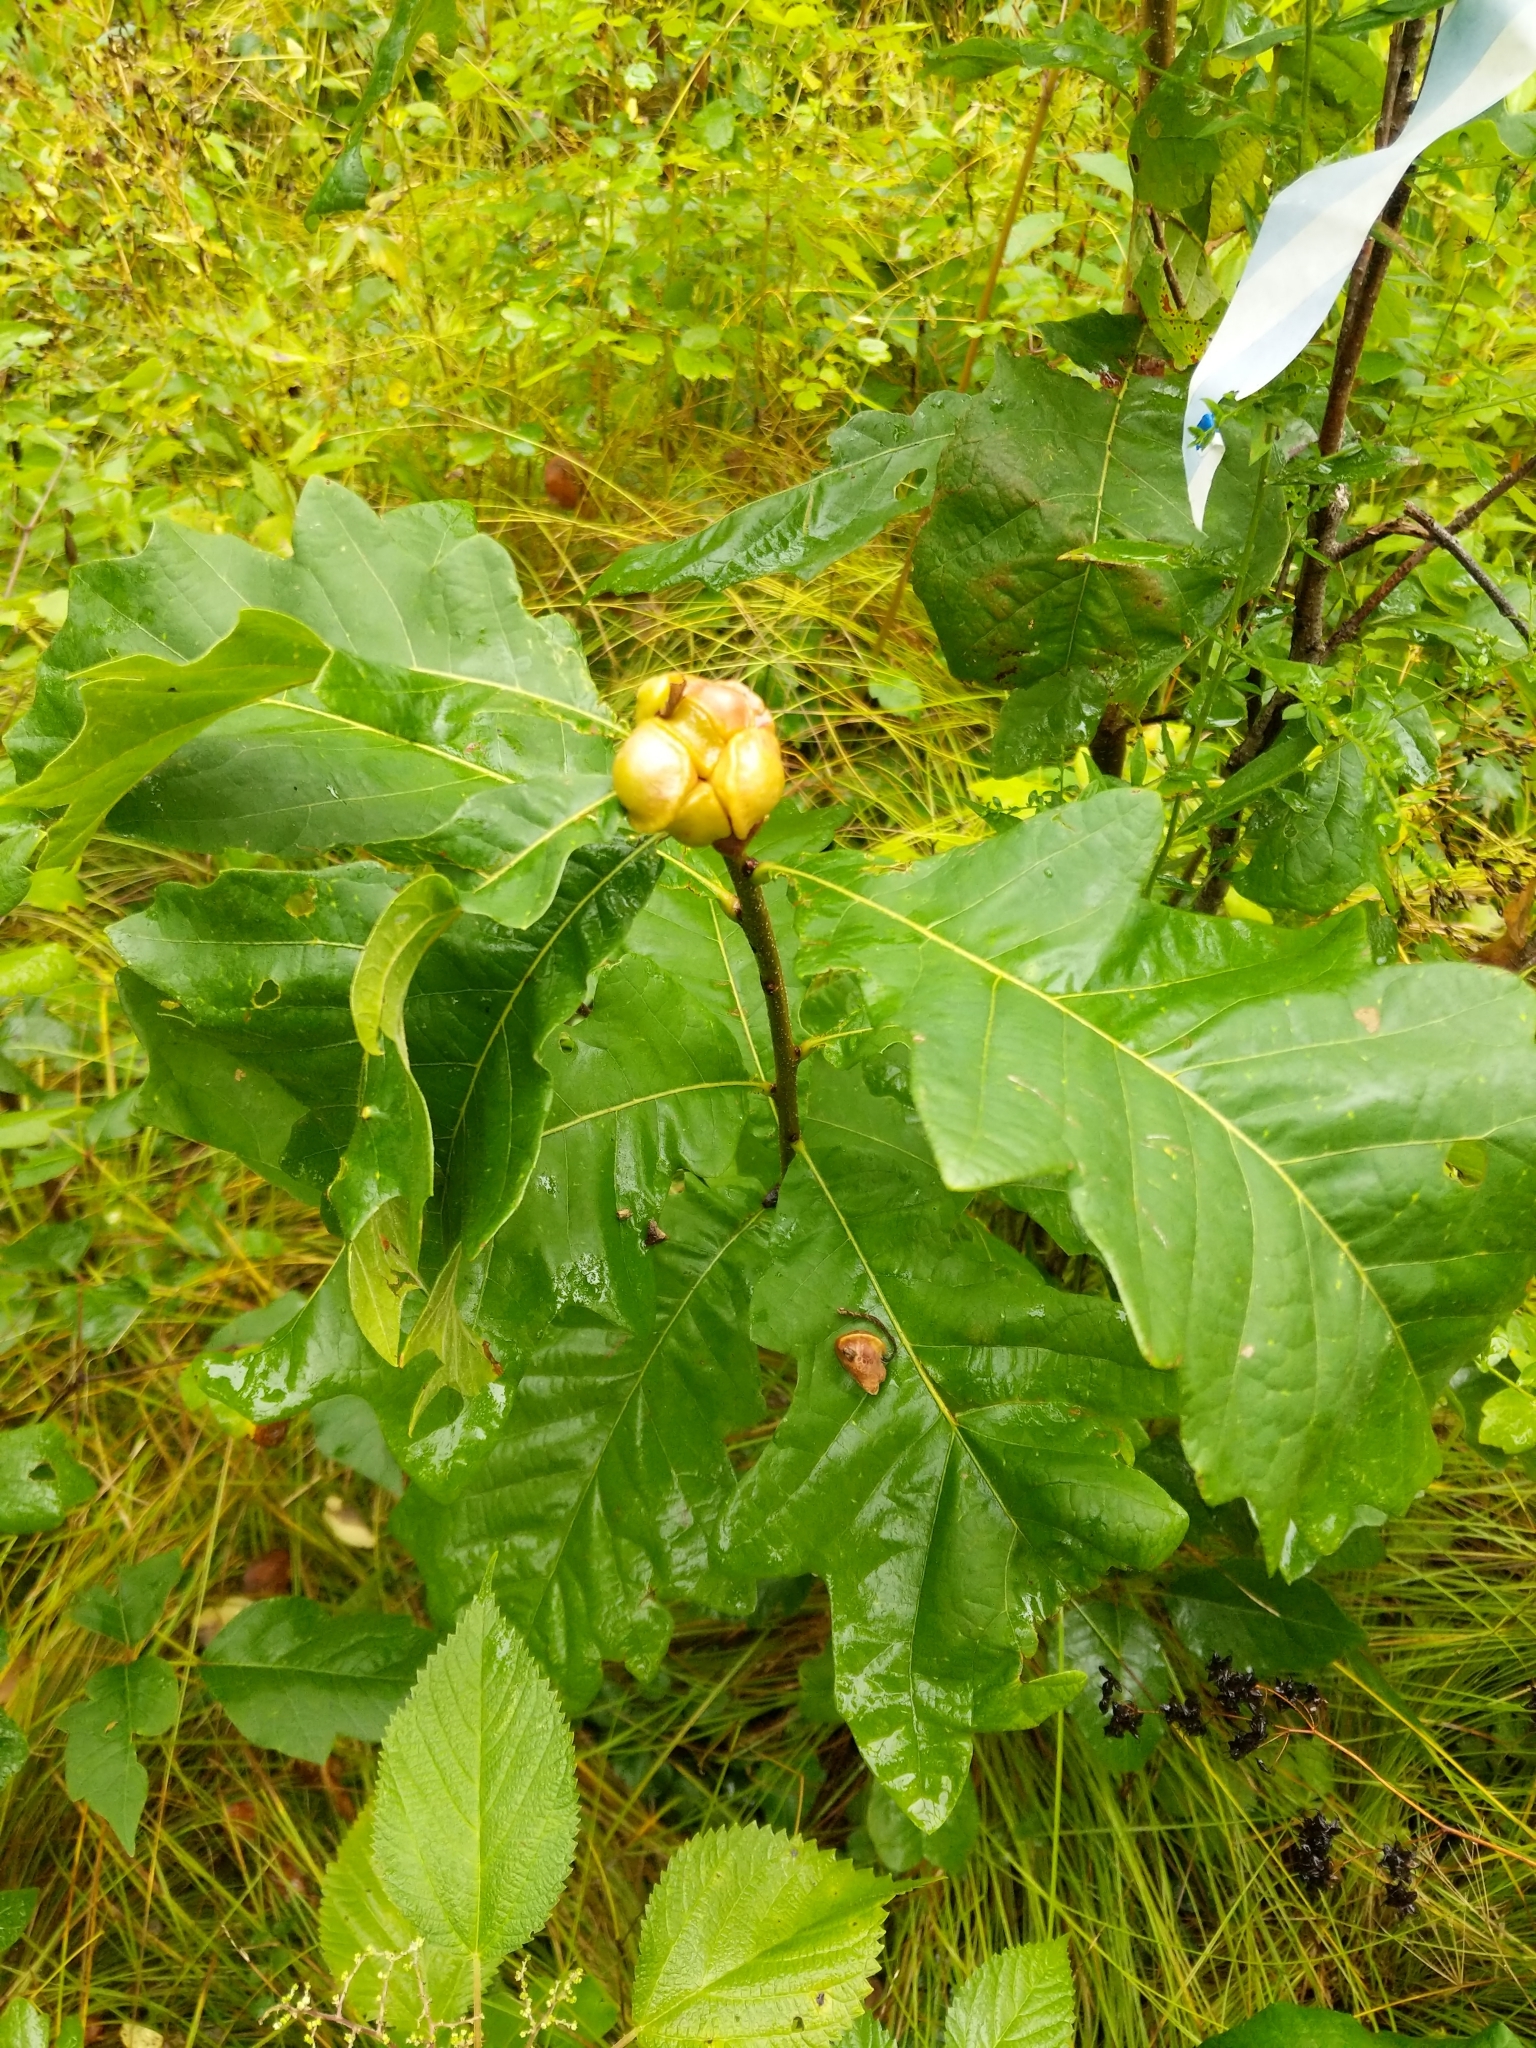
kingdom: Animalia
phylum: Arthropoda
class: Insecta
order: Hymenoptera
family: Cynipidae
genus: Andricus
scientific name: Andricus
